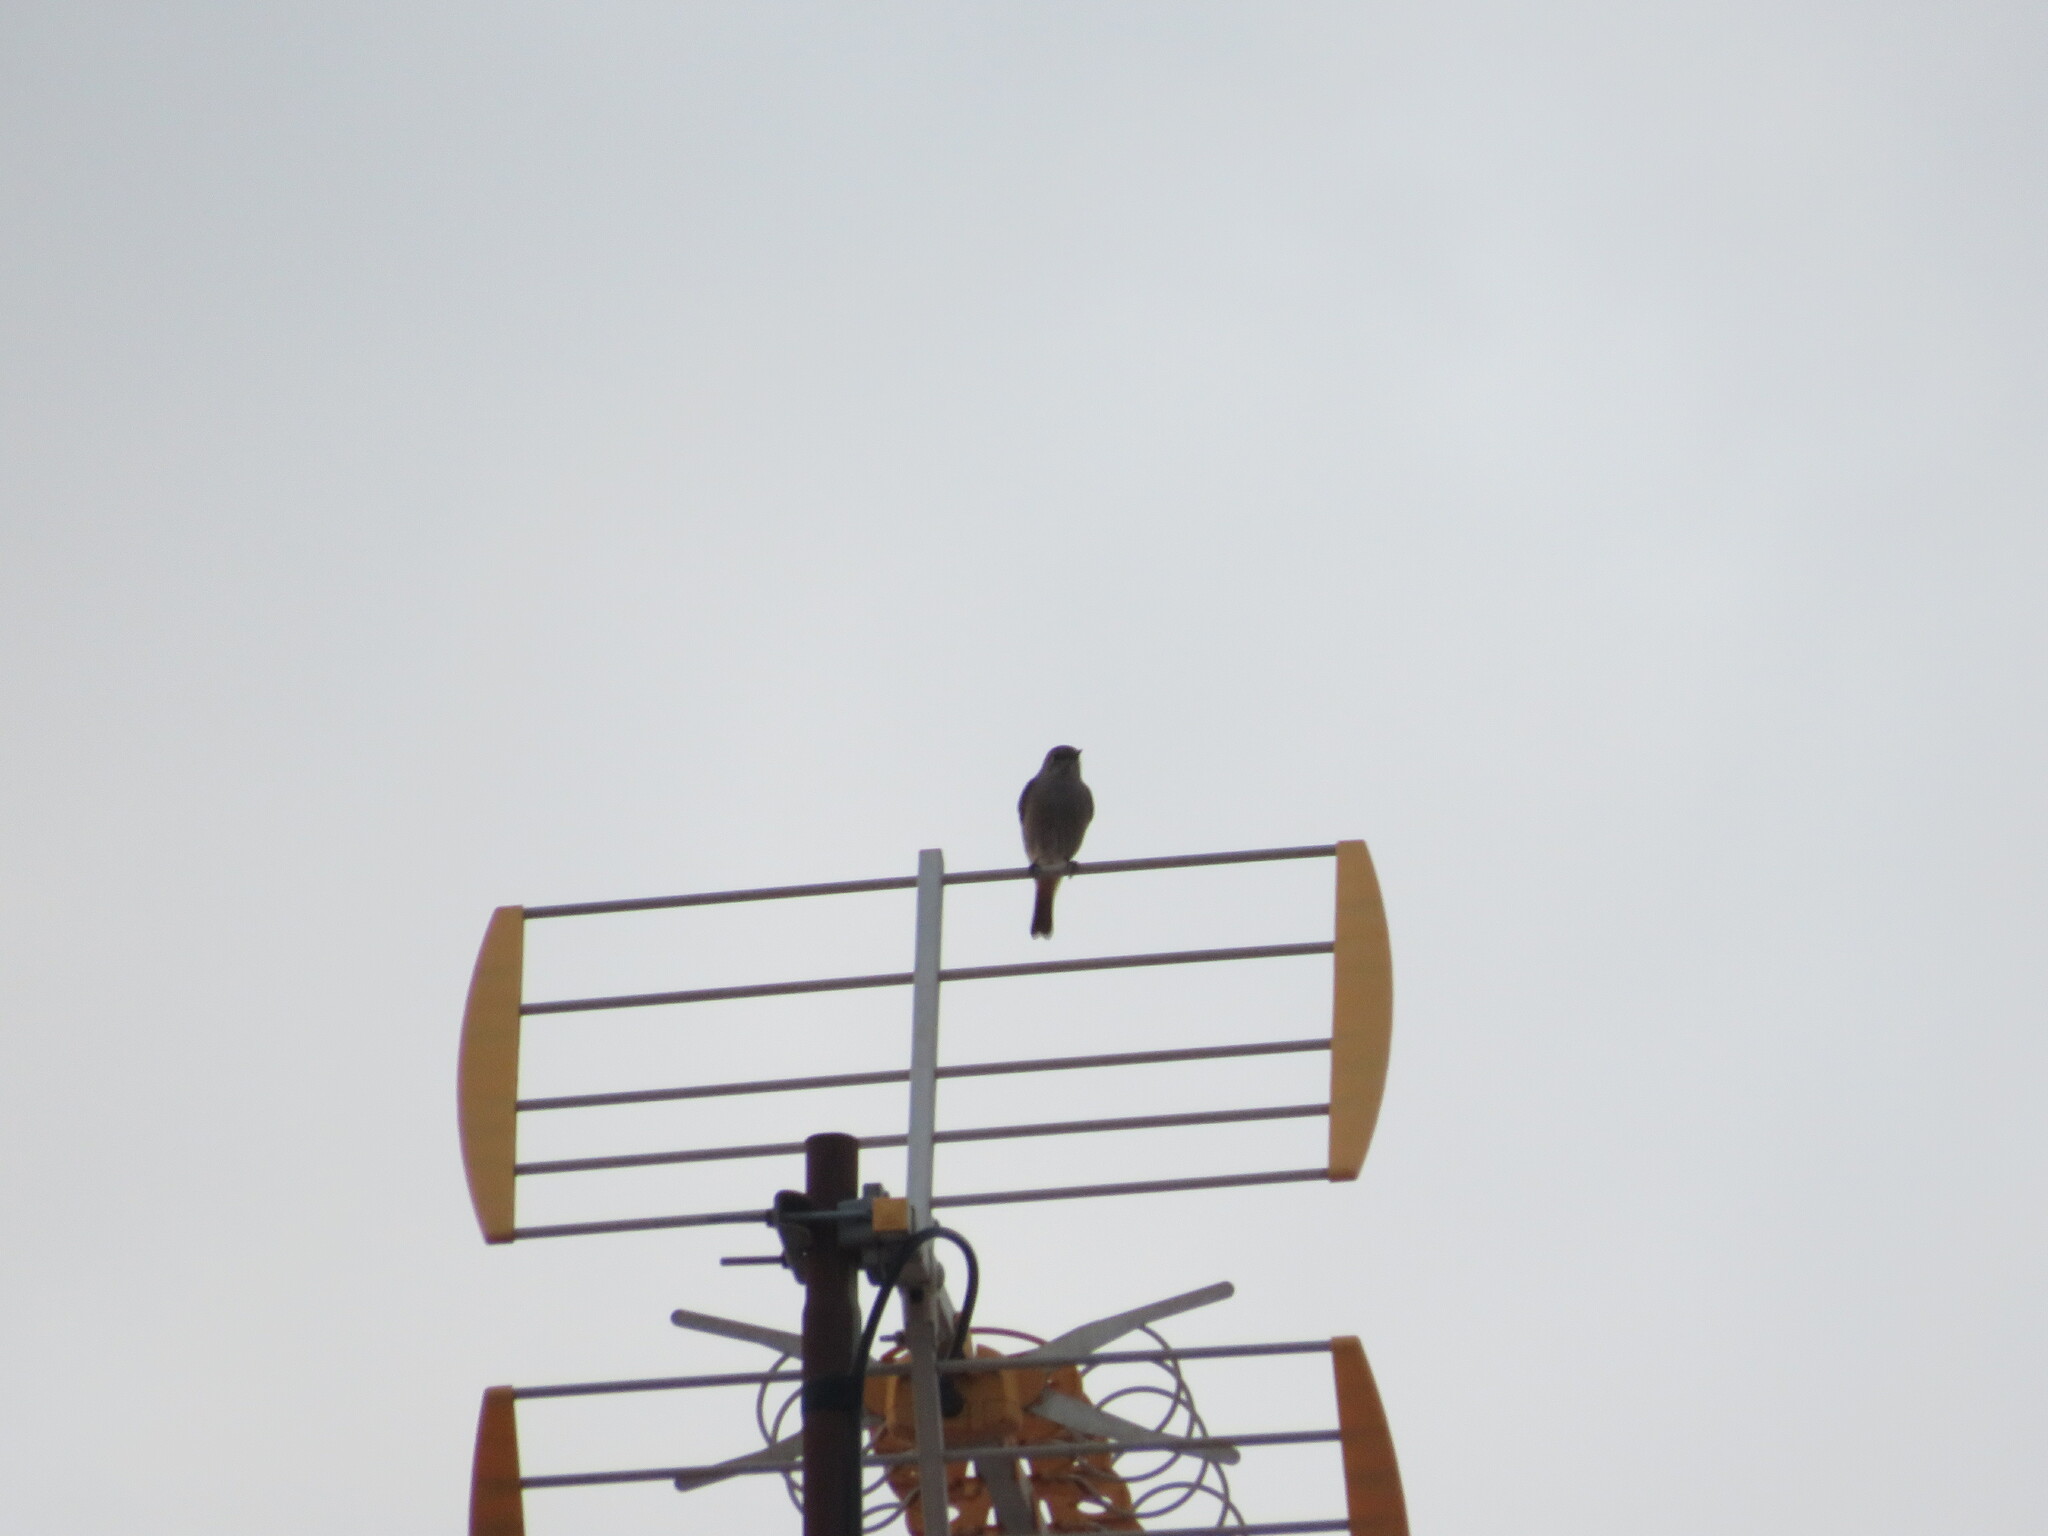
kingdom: Animalia
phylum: Chordata
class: Aves
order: Passeriformes
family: Muscicapidae
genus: Phoenicurus
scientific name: Phoenicurus ochruros
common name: Black redstart
